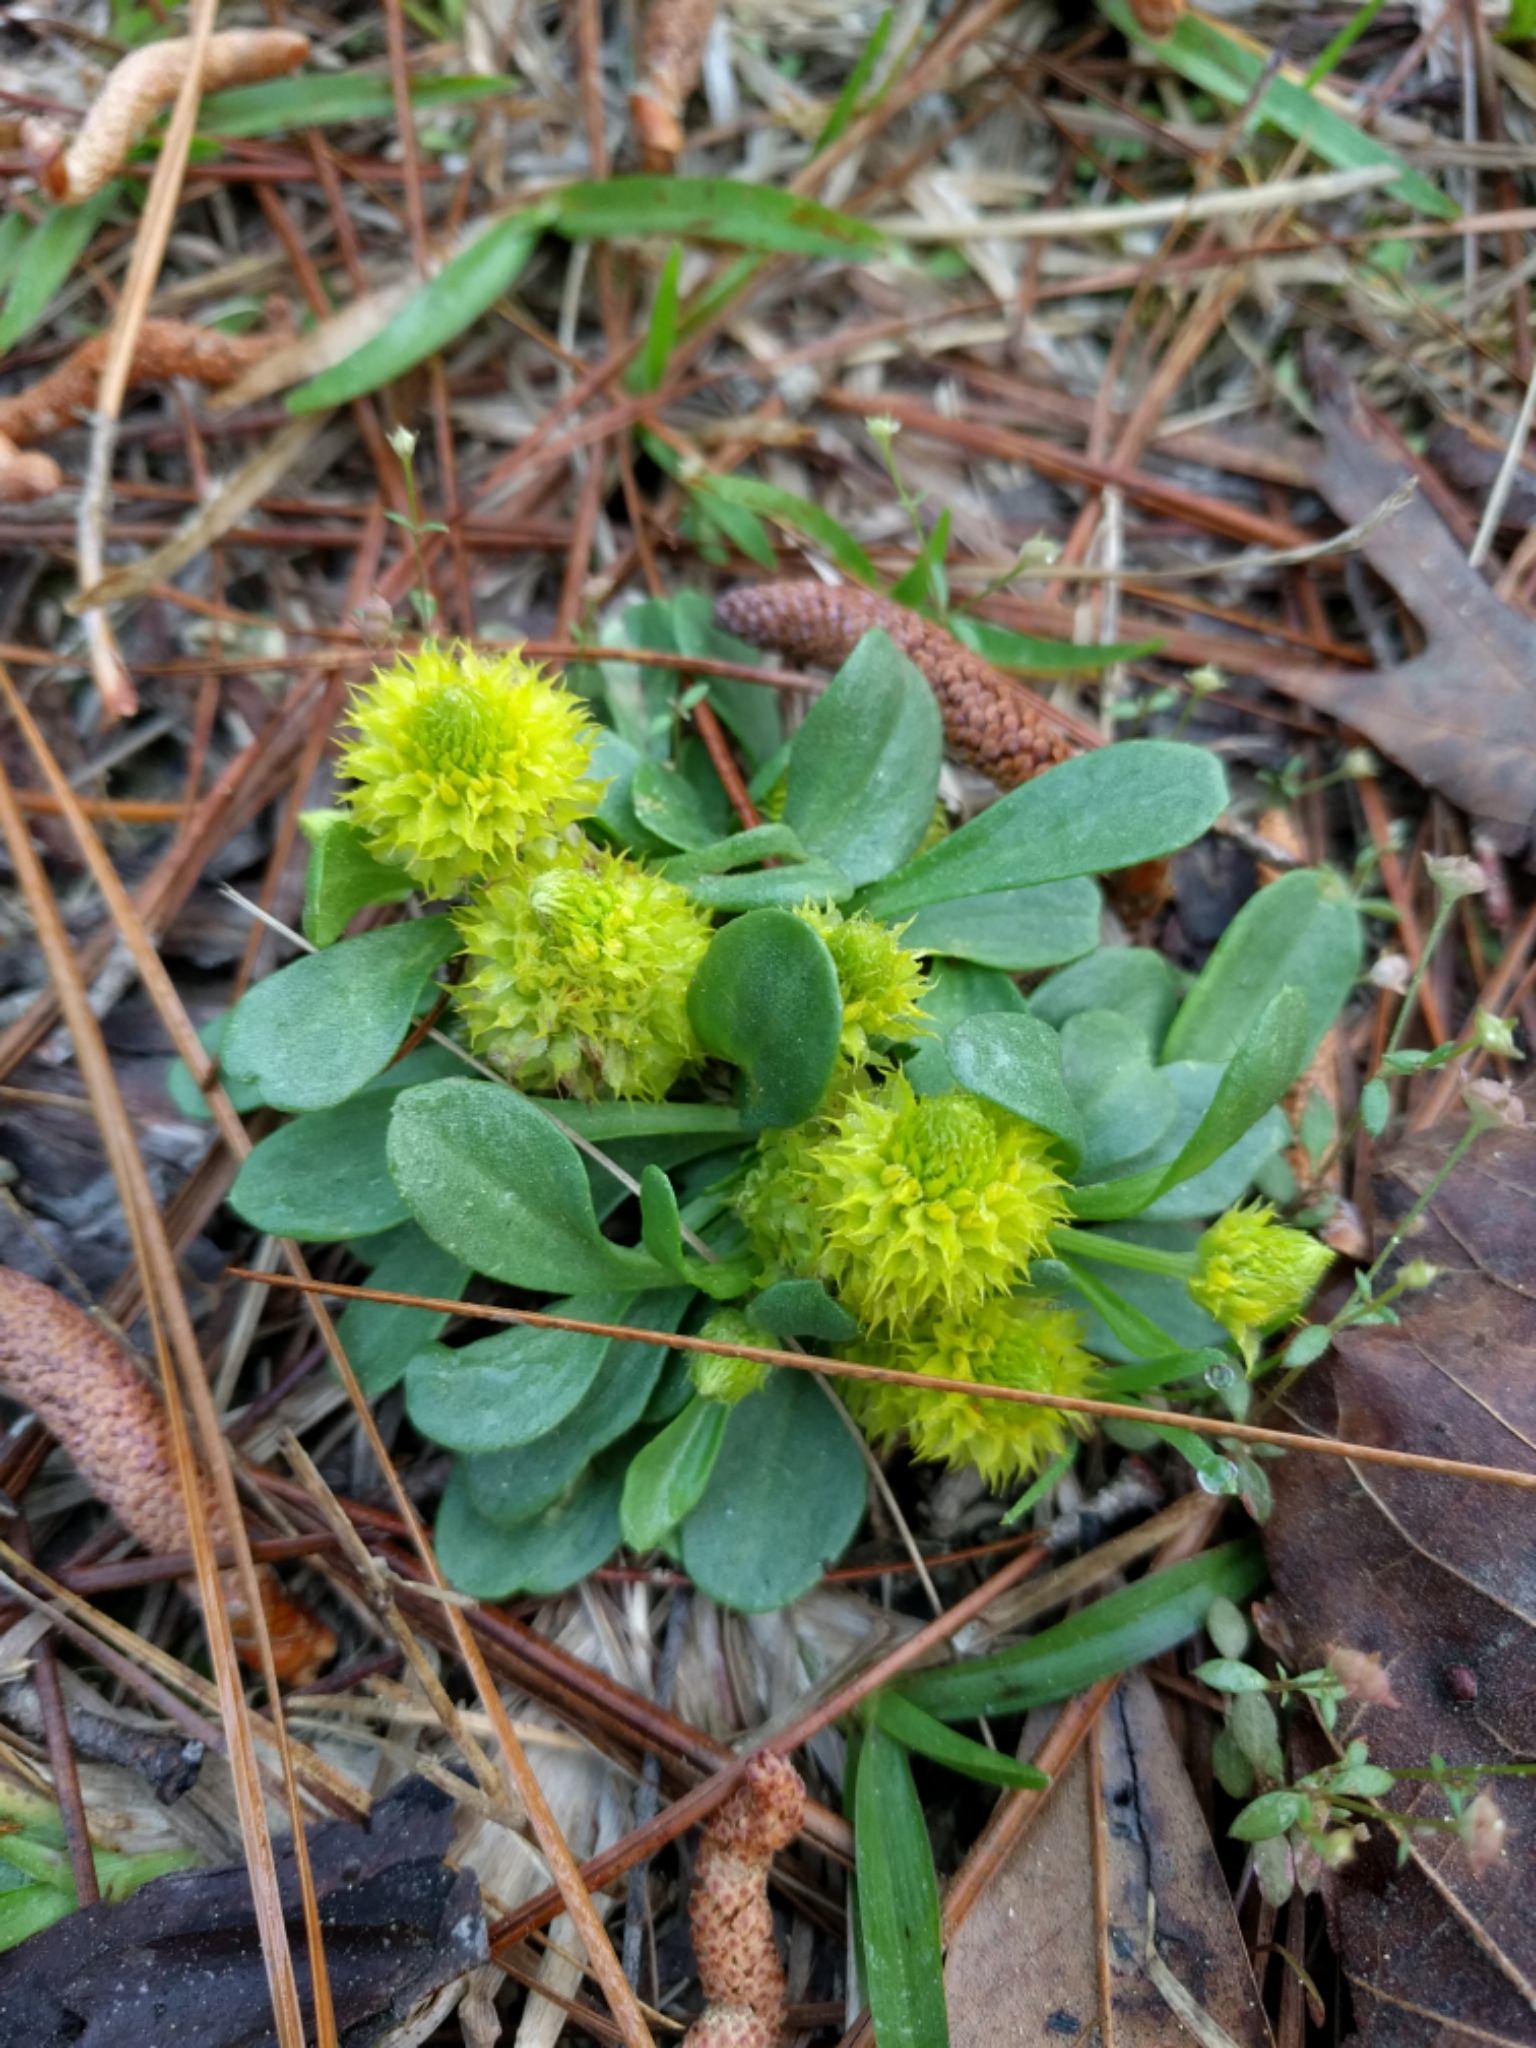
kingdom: Plantae
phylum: Tracheophyta
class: Magnoliopsida
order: Fabales
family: Polygalaceae
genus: Polygala
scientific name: Polygala nana
